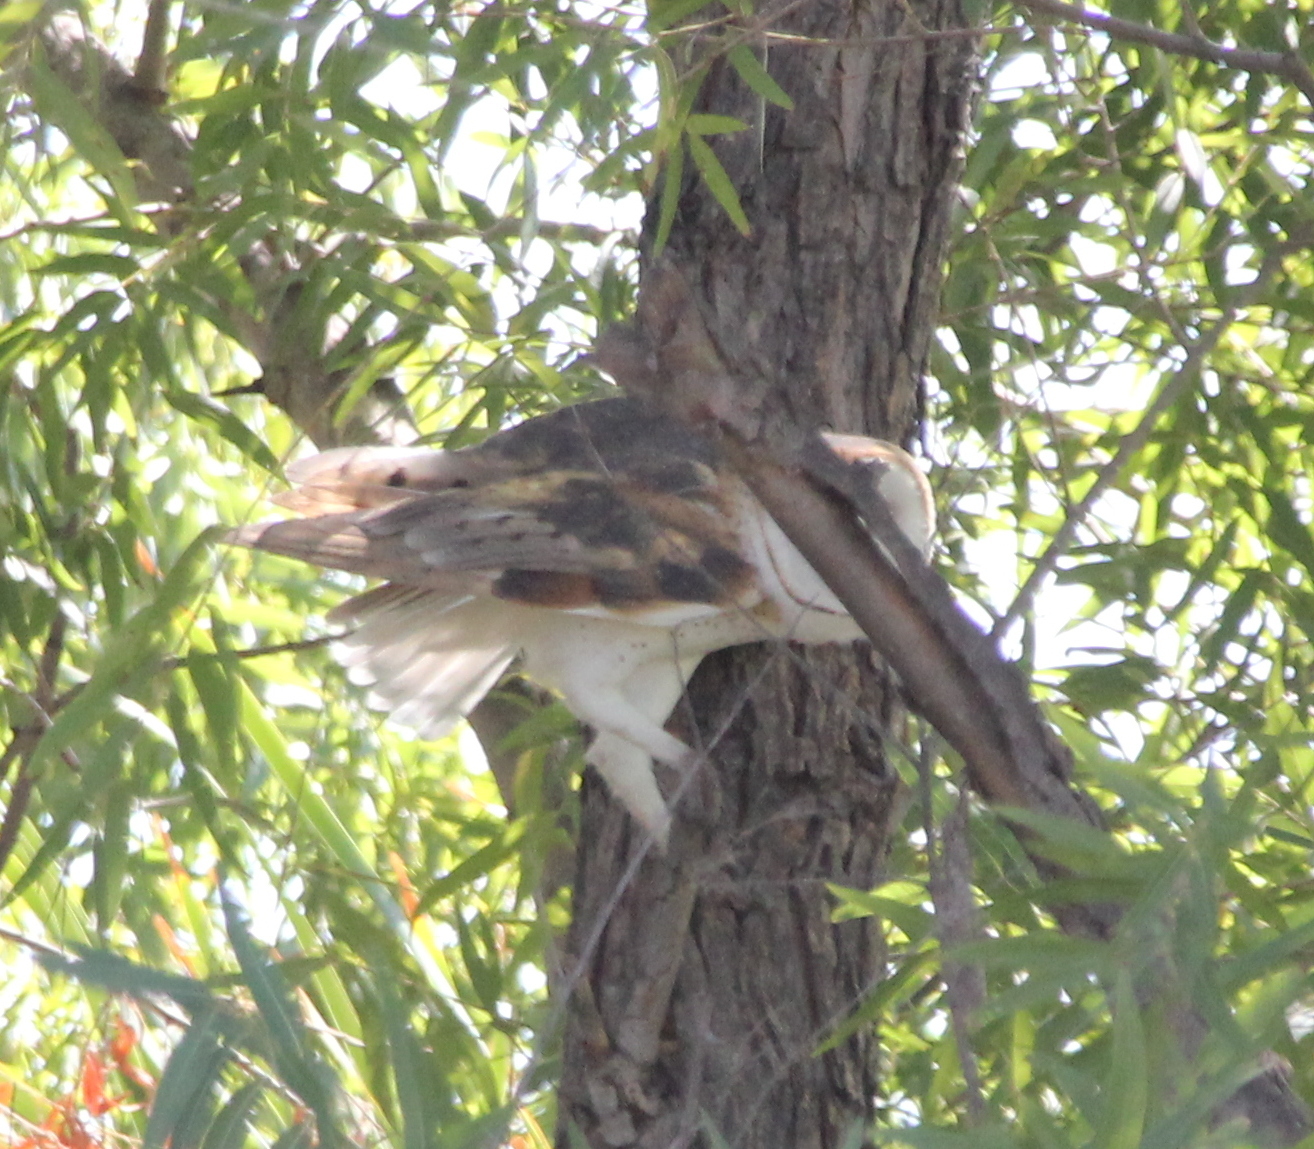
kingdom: Animalia
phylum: Chordata
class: Aves
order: Strigiformes
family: Tytonidae
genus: Tyto
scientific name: Tyto alba
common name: Barn owl
